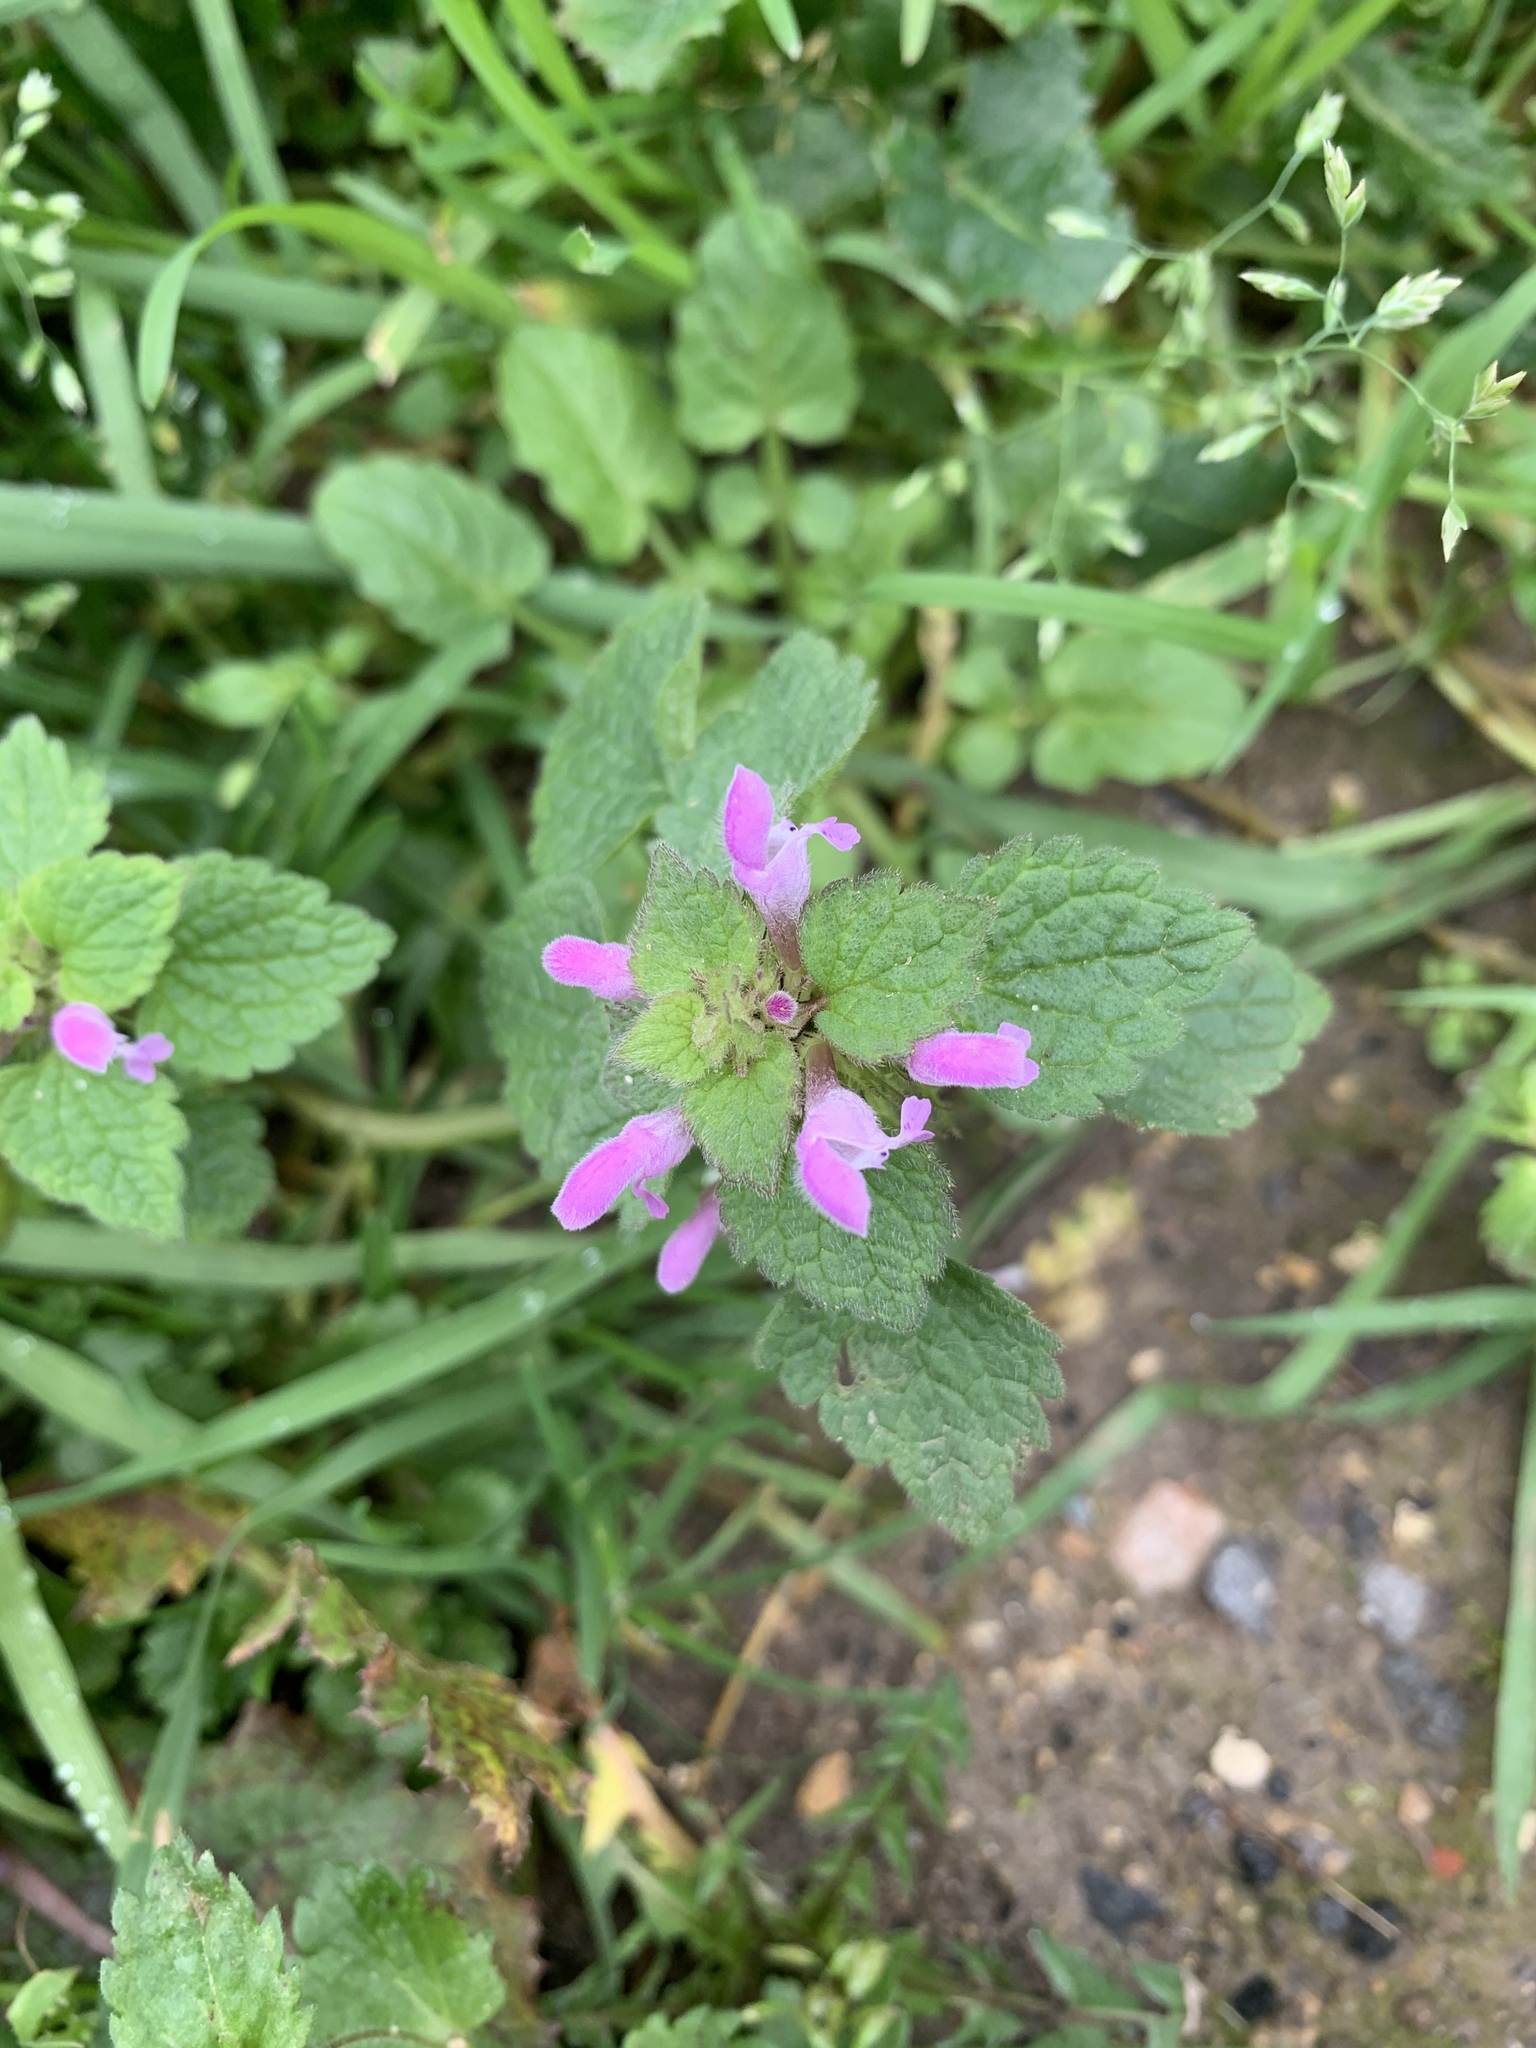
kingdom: Plantae
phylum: Tracheophyta
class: Magnoliopsida
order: Lamiales
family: Lamiaceae
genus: Lamium
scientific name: Lamium purpureum
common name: Red dead-nettle
